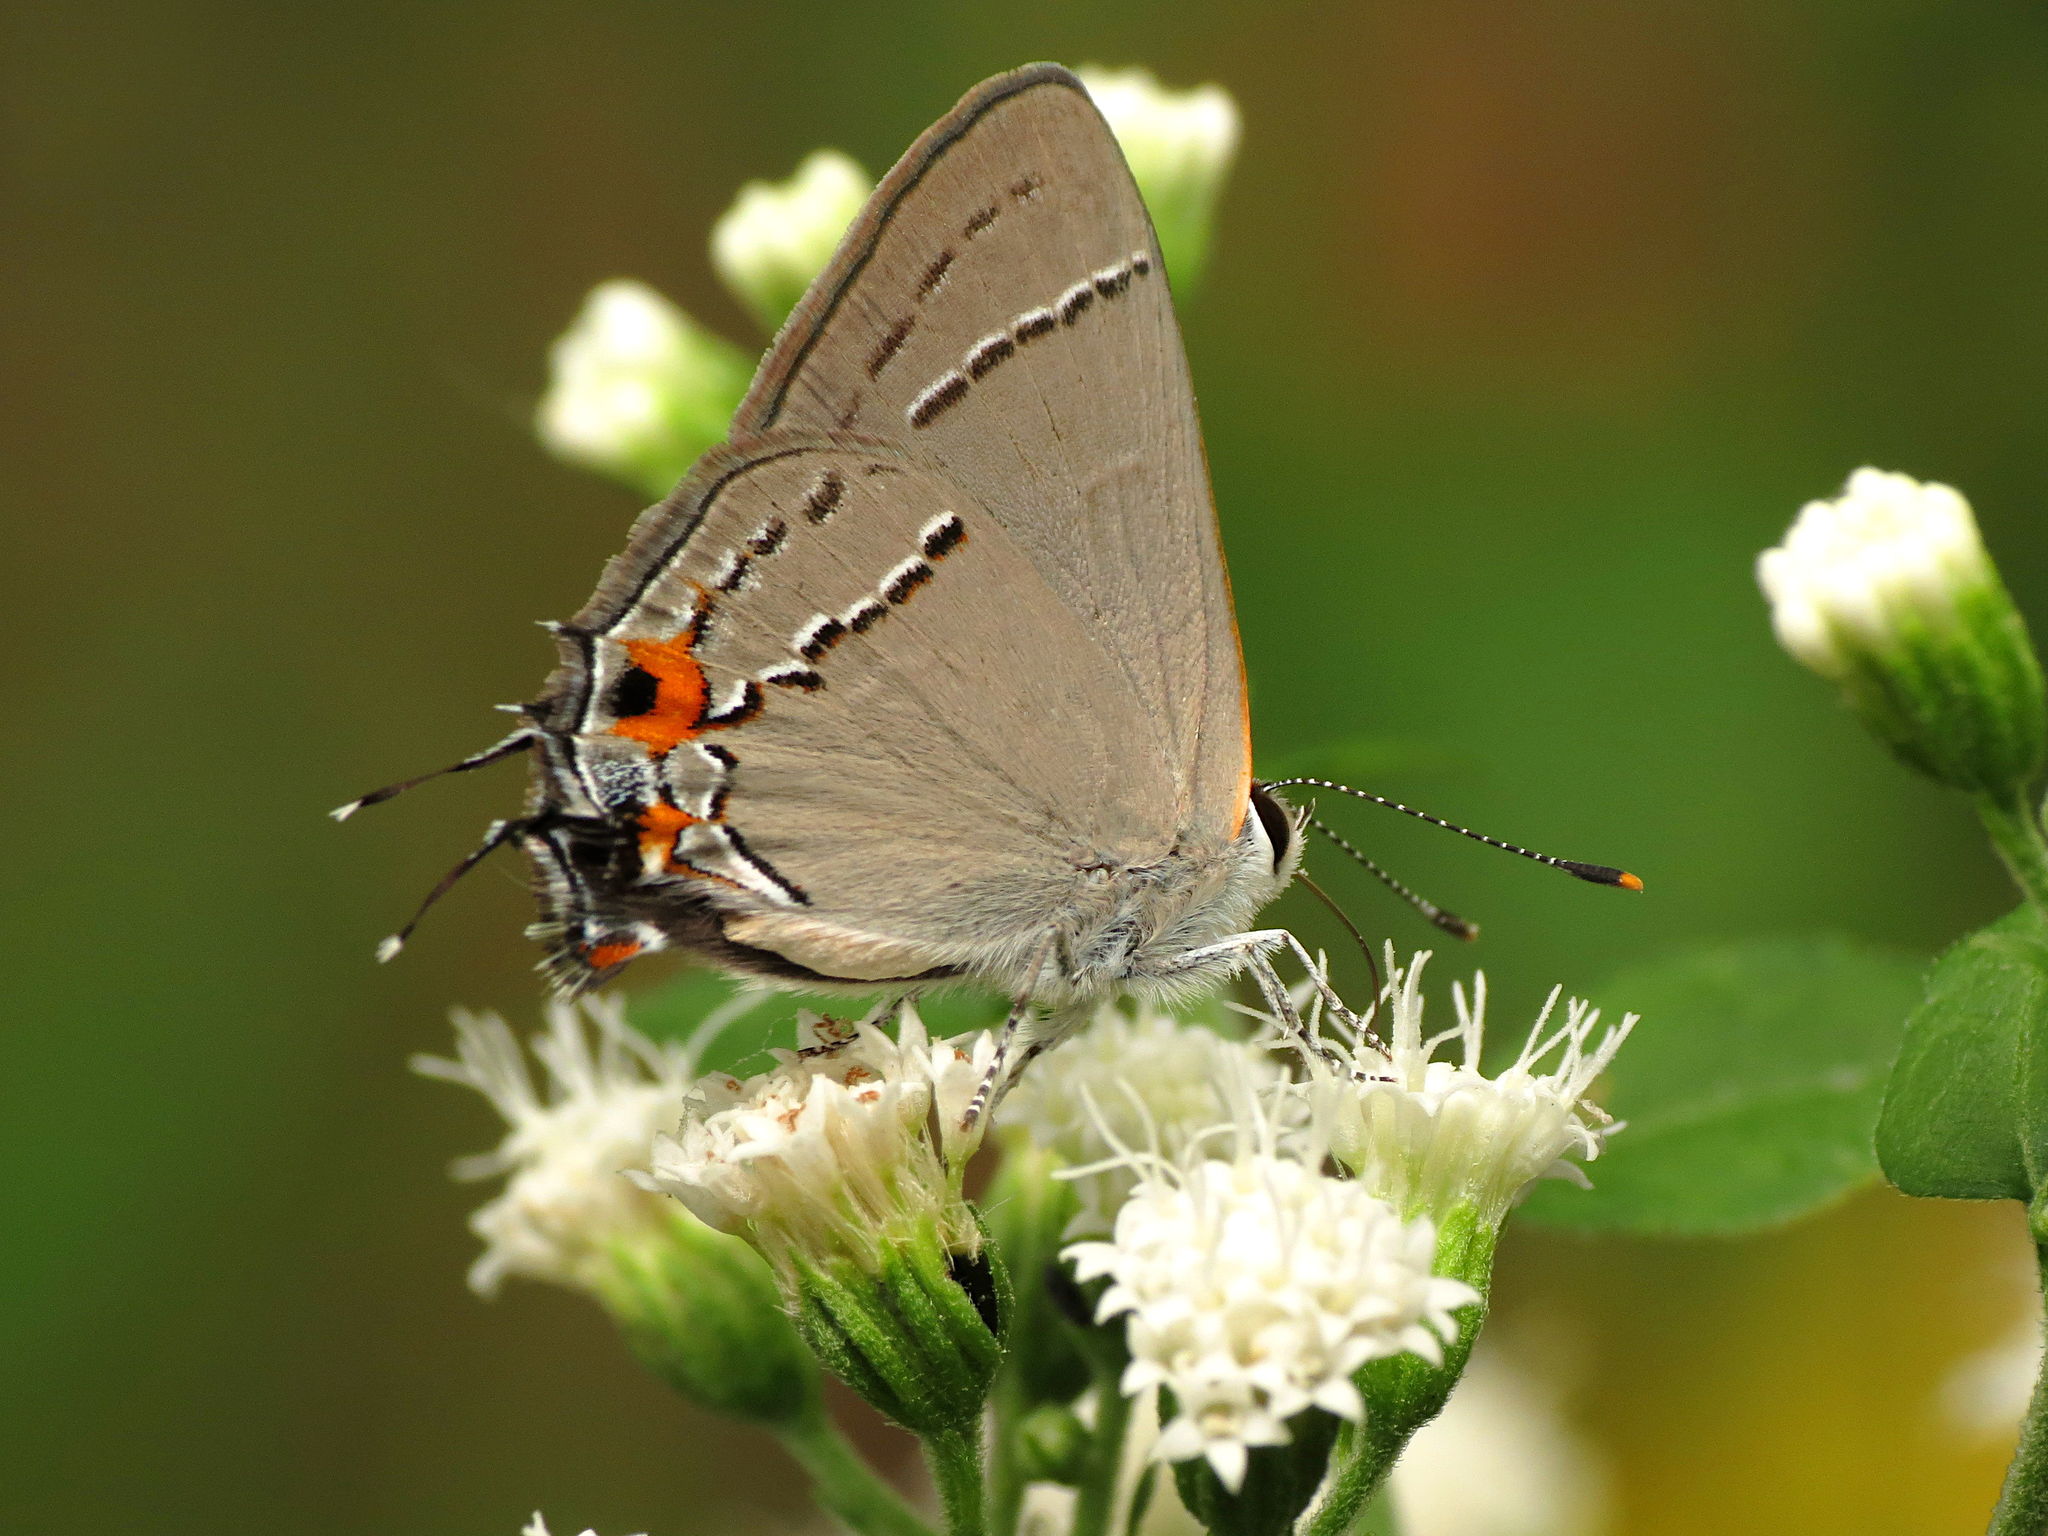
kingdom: Animalia
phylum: Arthropoda
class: Insecta
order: Lepidoptera
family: Lycaenidae
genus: Strymon
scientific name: Strymon melinus
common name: Gray hairstreak
